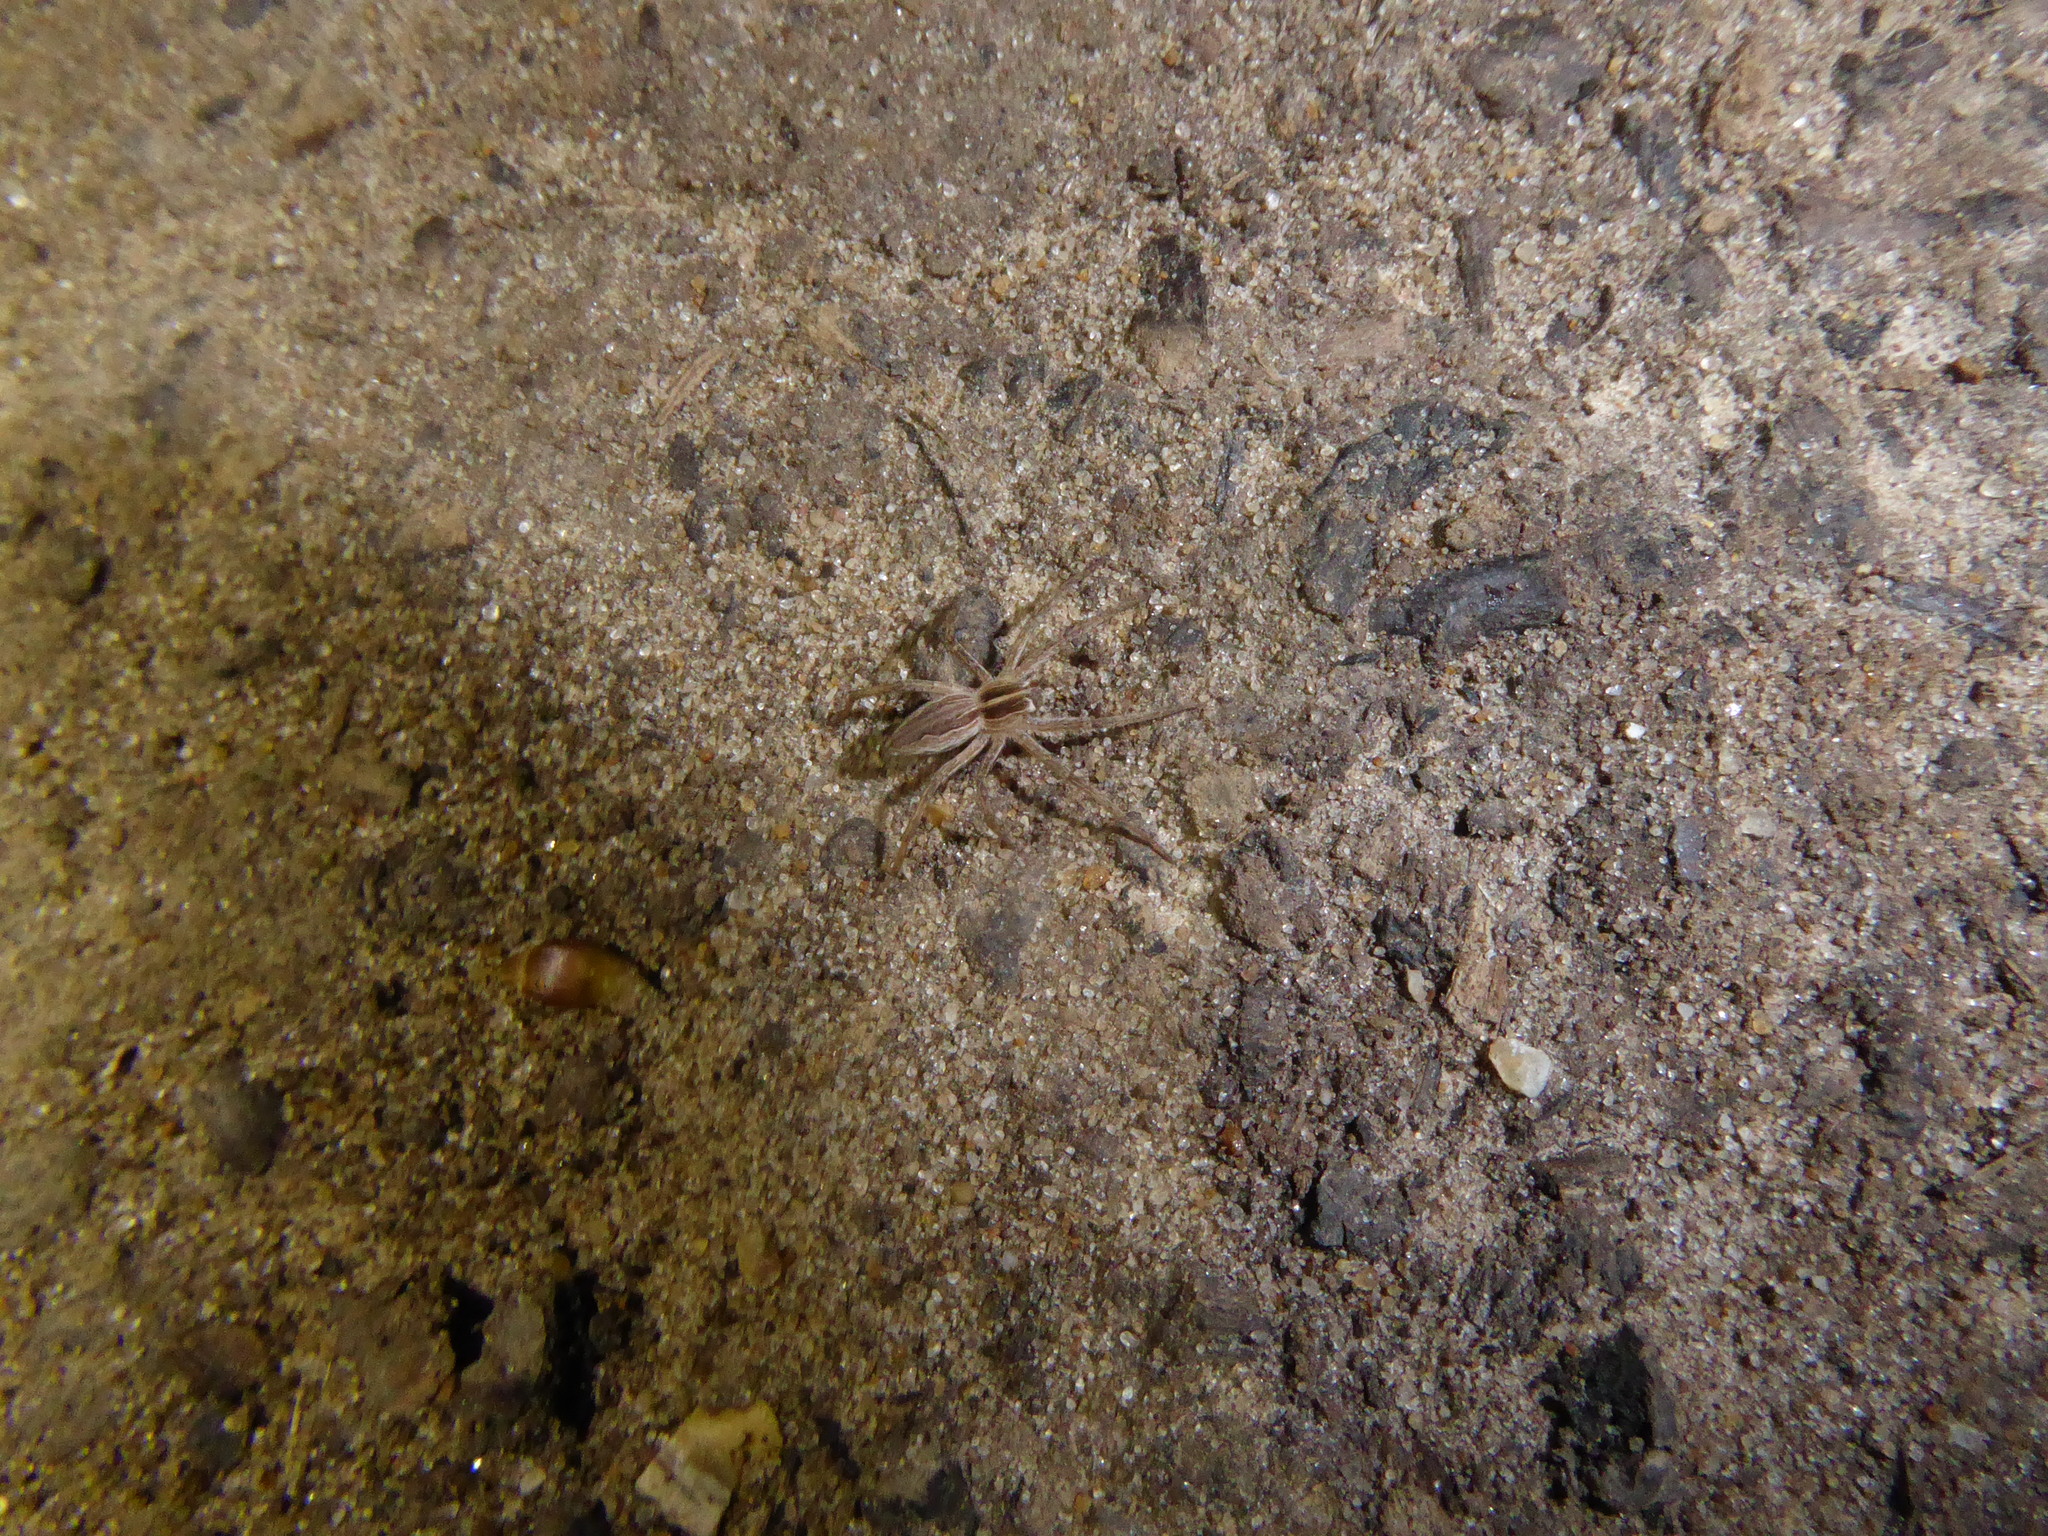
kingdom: Animalia
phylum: Arthropoda
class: Arachnida
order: Araneae
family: Pisauridae
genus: Pisaura
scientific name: Pisaura mirabilis
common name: Tent spider
